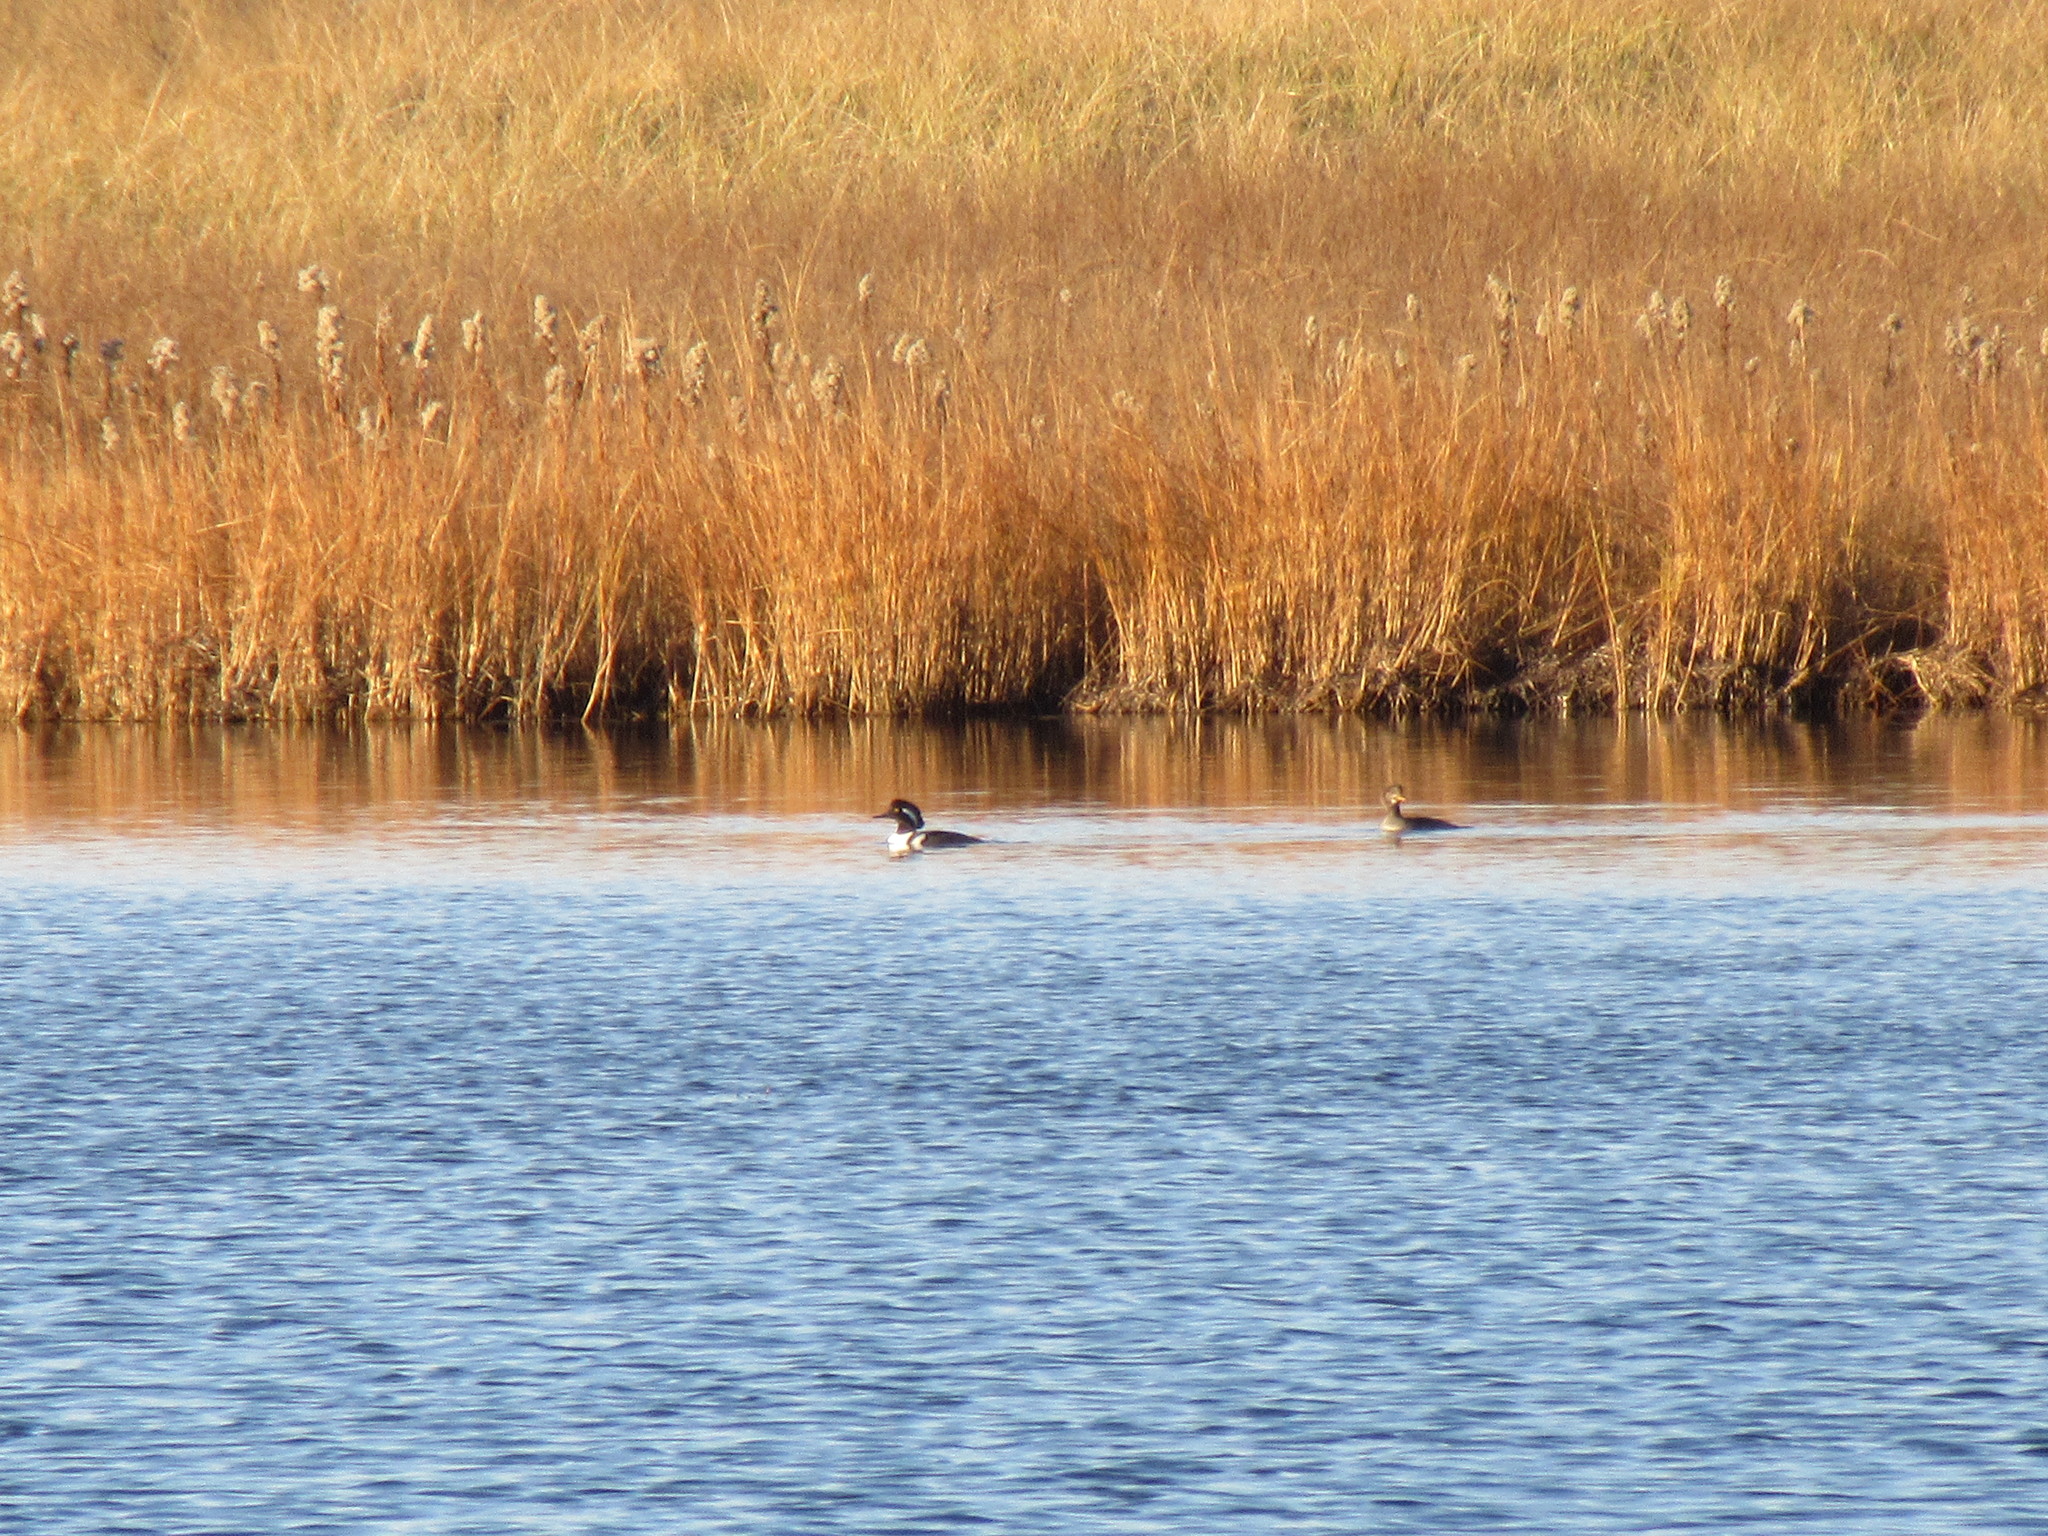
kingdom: Animalia
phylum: Chordata
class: Aves
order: Anseriformes
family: Anatidae
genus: Lophodytes
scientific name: Lophodytes cucullatus
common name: Hooded merganser
